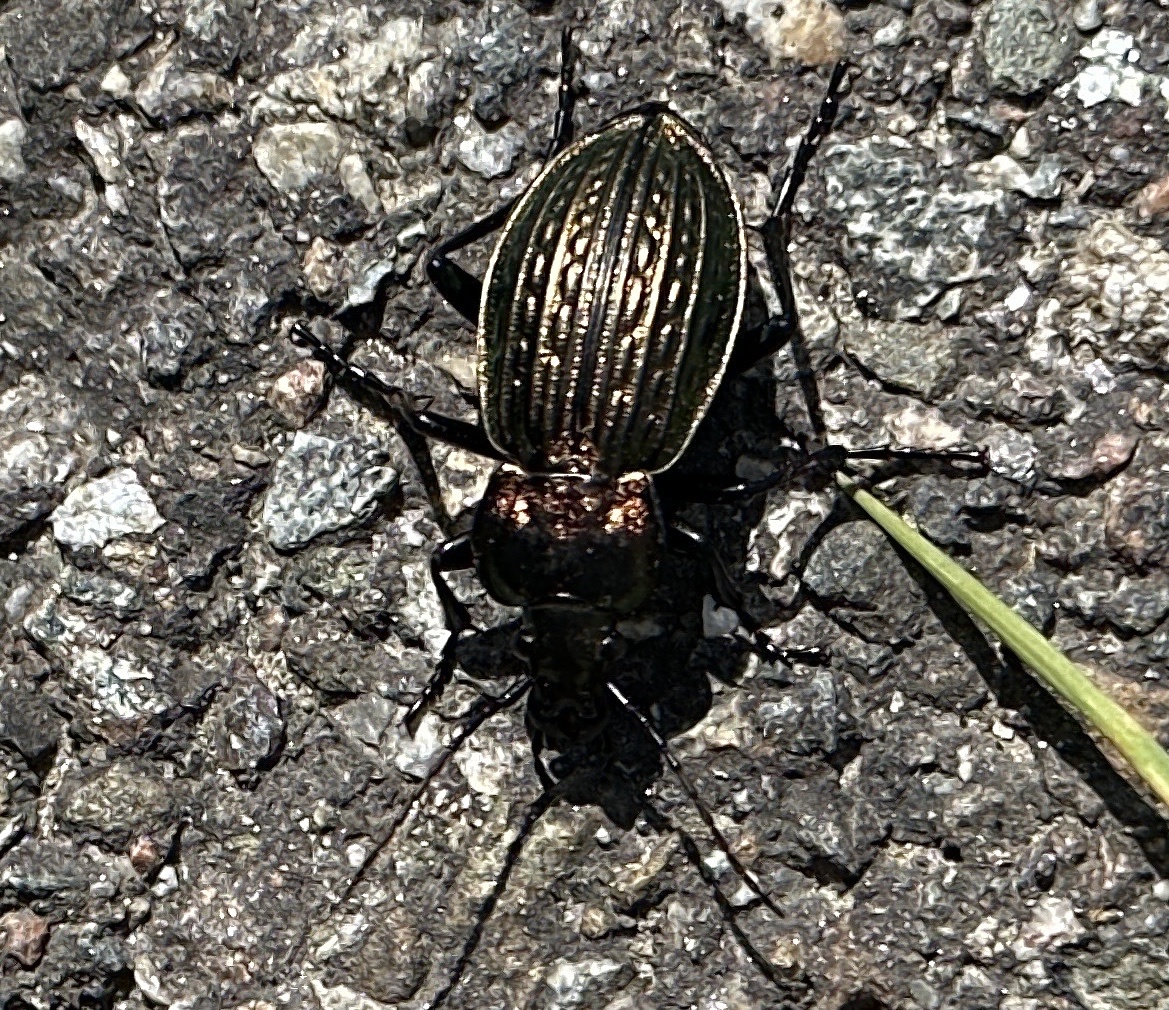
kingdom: Animalia
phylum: Arthropoda
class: Insecta
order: Coleoptera
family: Carabidae
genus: Carabus
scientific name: Carabus ulrichii
